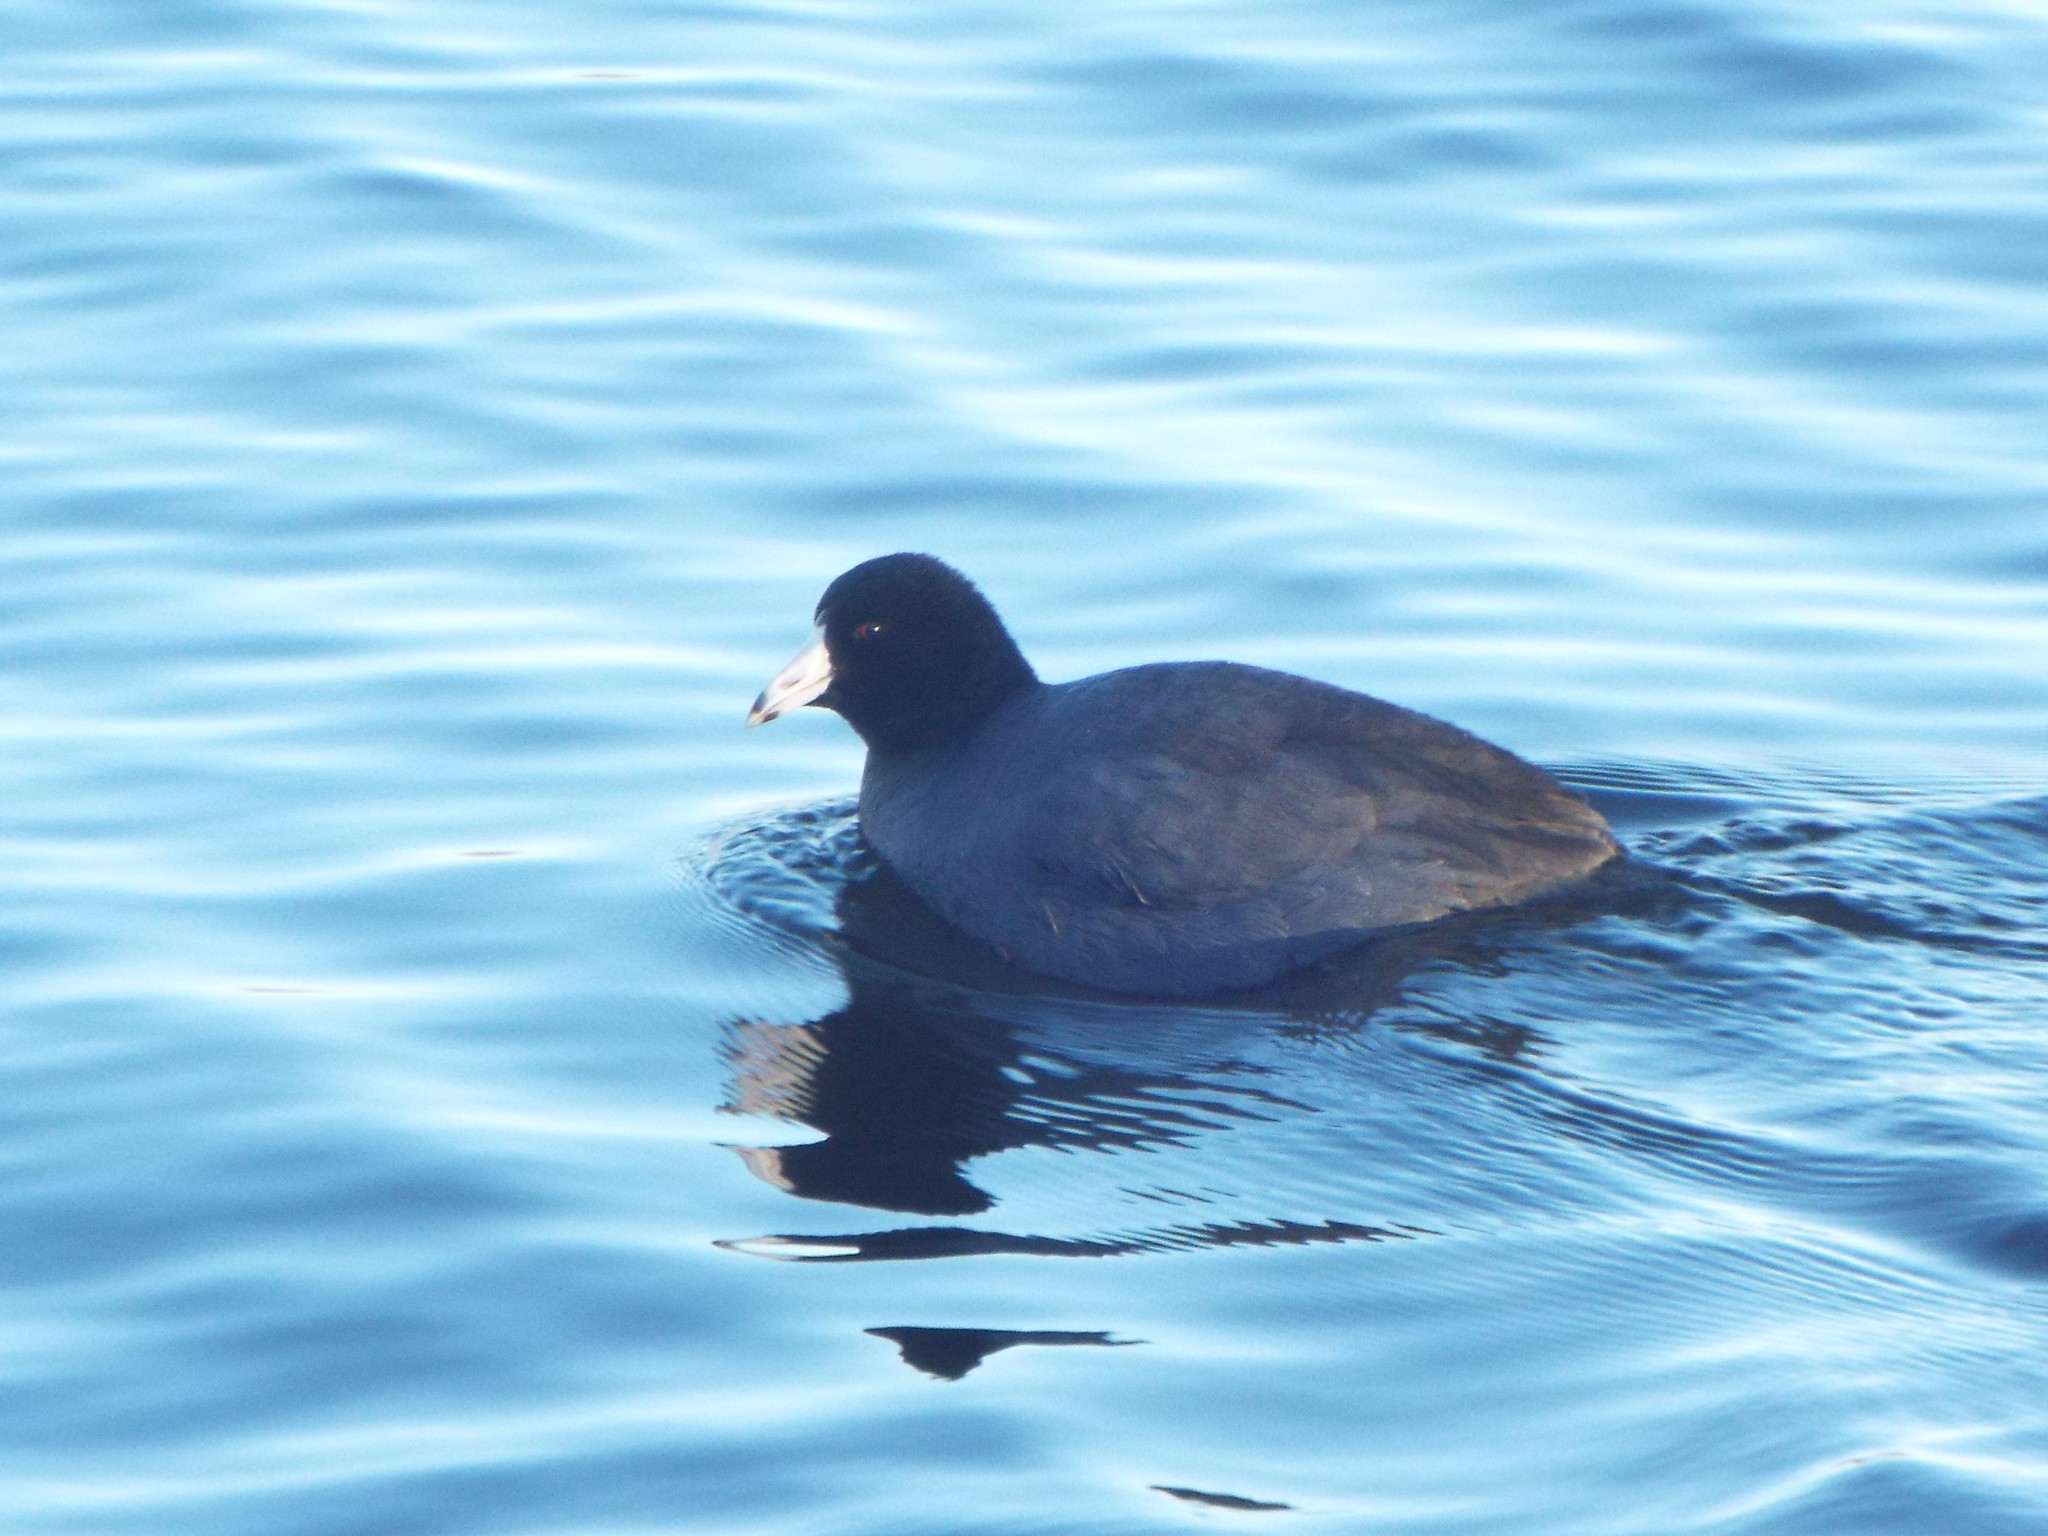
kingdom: Animalia
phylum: Chordata
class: Aves
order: Gruiformes
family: Rallidae
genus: Fulica
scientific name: Fulica americana
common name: American coot
